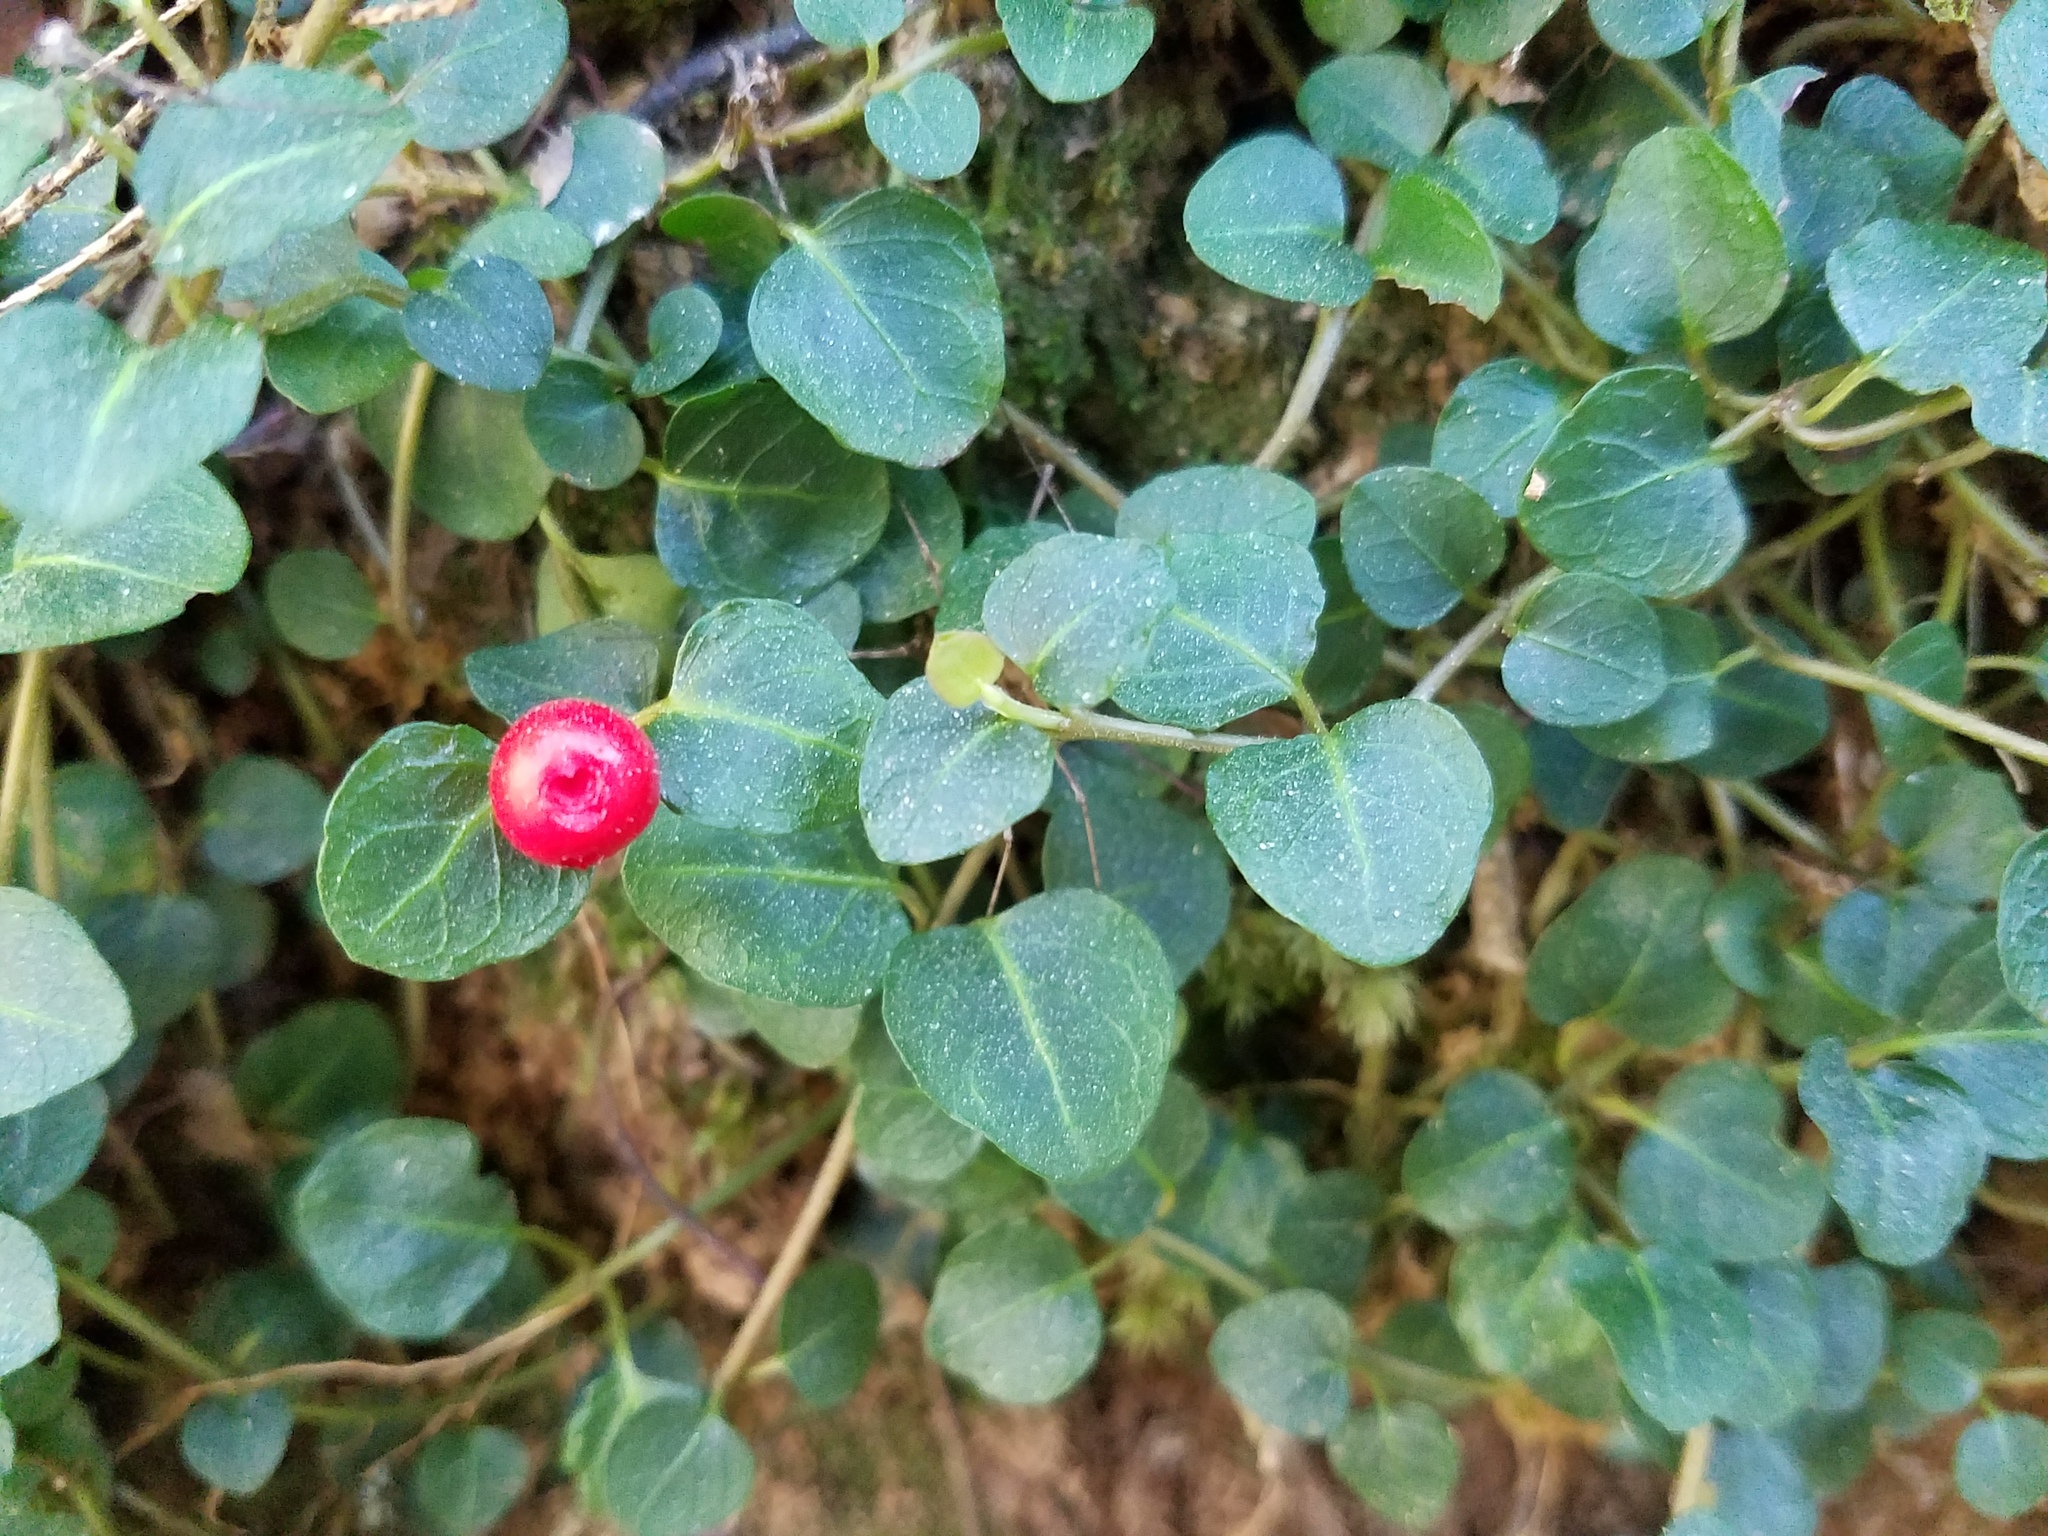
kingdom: Plantae
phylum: Tracheophyta
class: Magnoliopsida
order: Gentianales
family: Rubiaceae
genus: Mitchella
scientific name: Mitchella repens
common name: Partridge-berry
